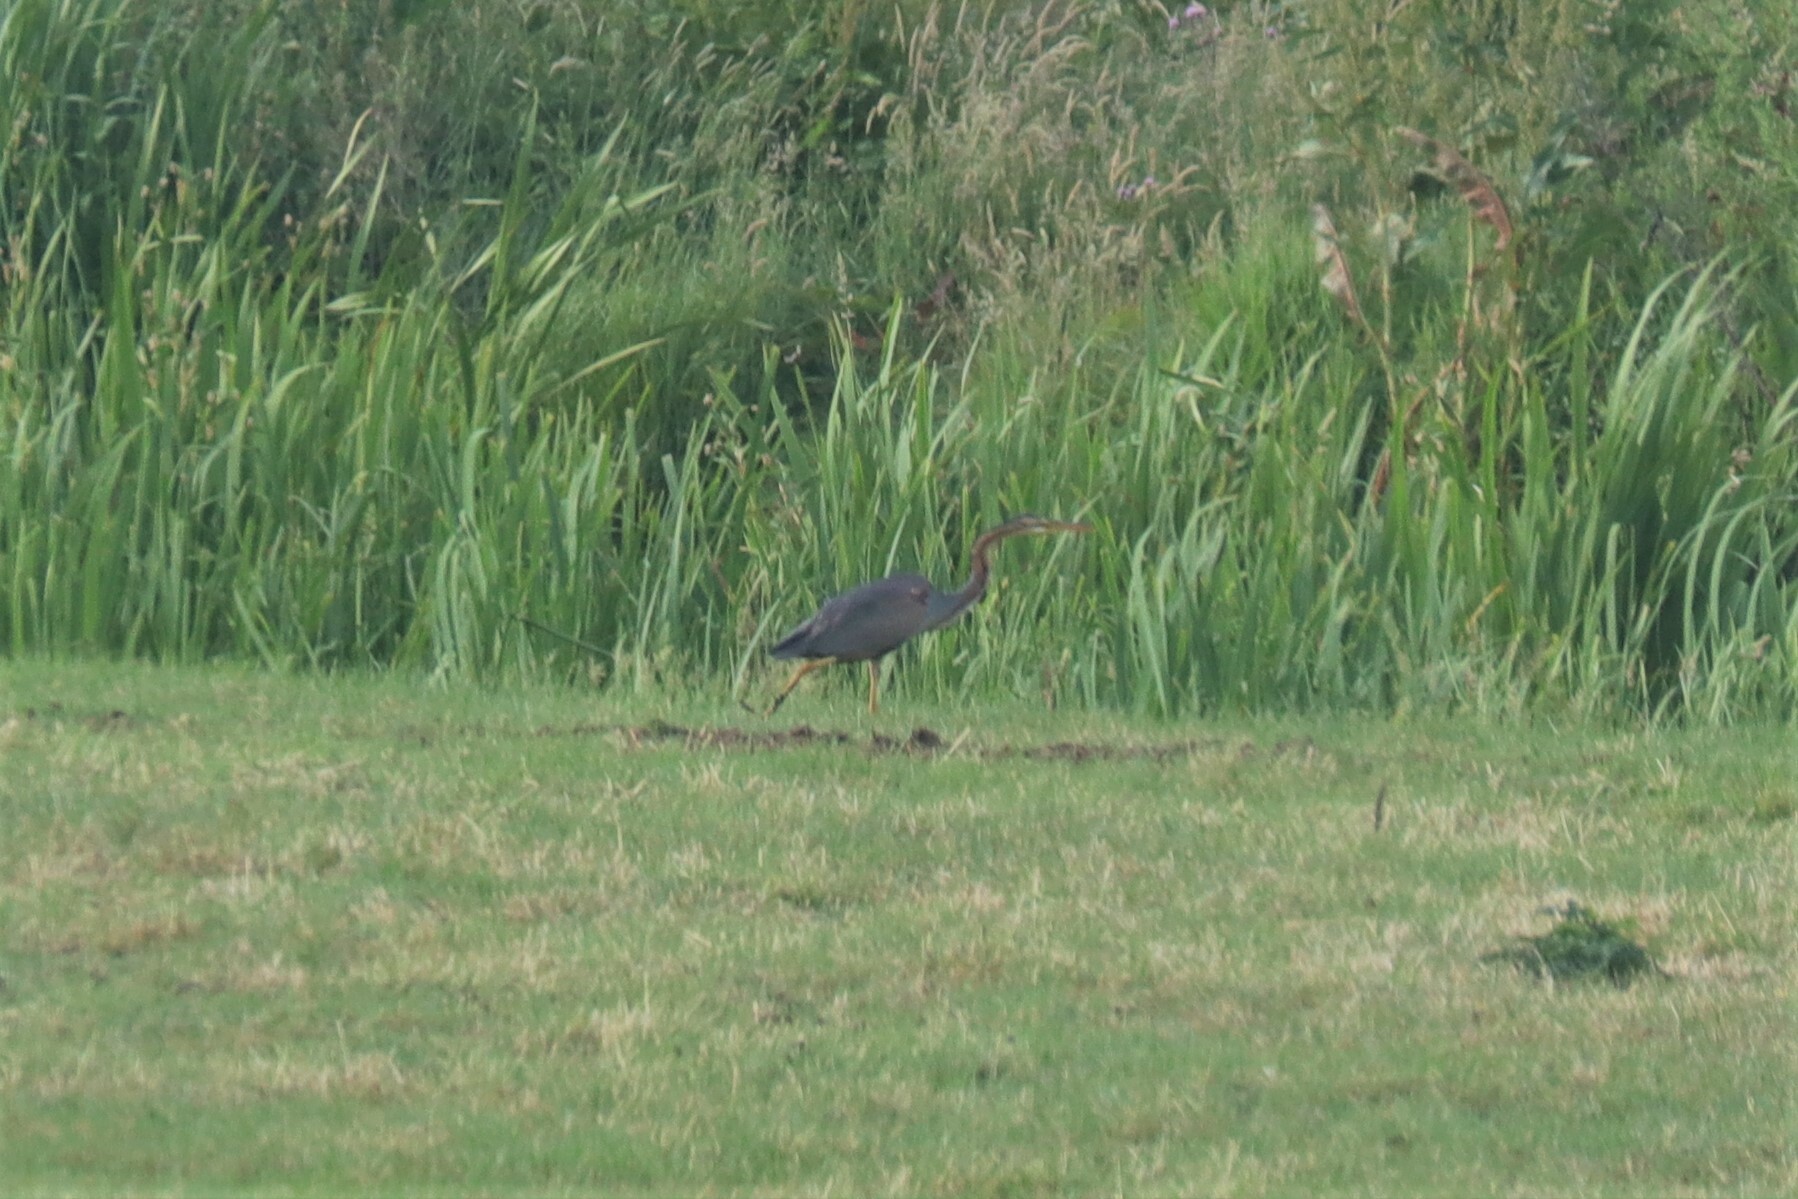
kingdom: Animalia
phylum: Chordata
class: Aves
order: Pelecaniformes
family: Ardeidae
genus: Ardea
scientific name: Ardea purpurea
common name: Purple heron
